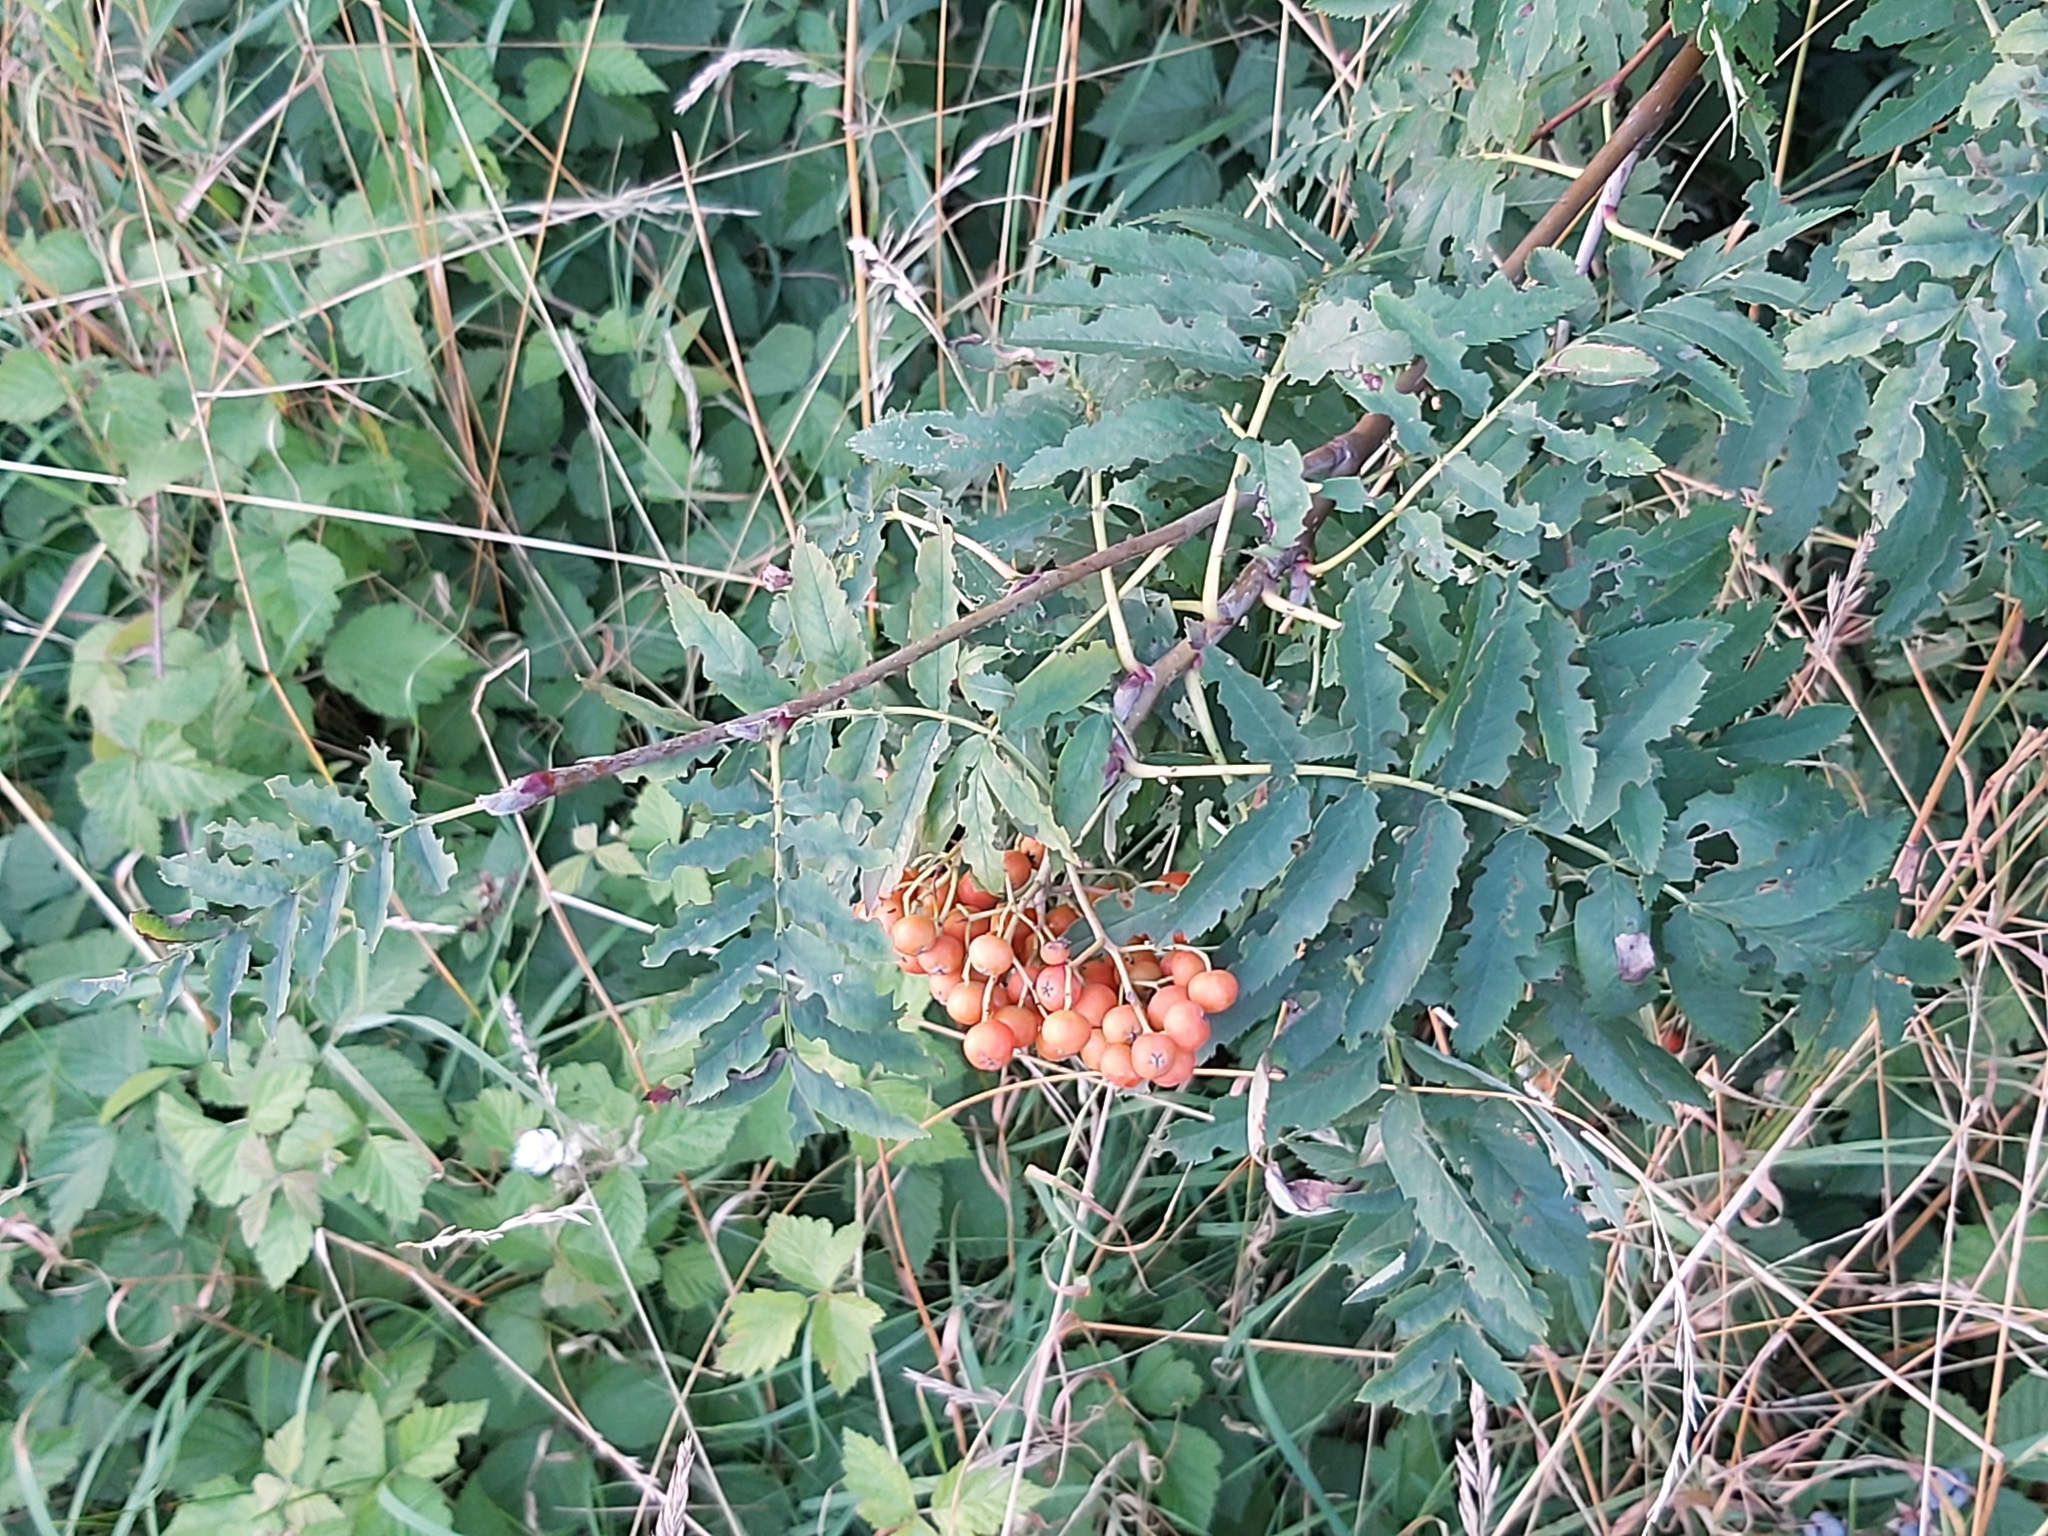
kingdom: Plantae
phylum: Tracheophyta
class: Magnoliopsida
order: Rosales
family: Rosaceae
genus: Sorbus
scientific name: Sorbus aucuparia
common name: Rowan
